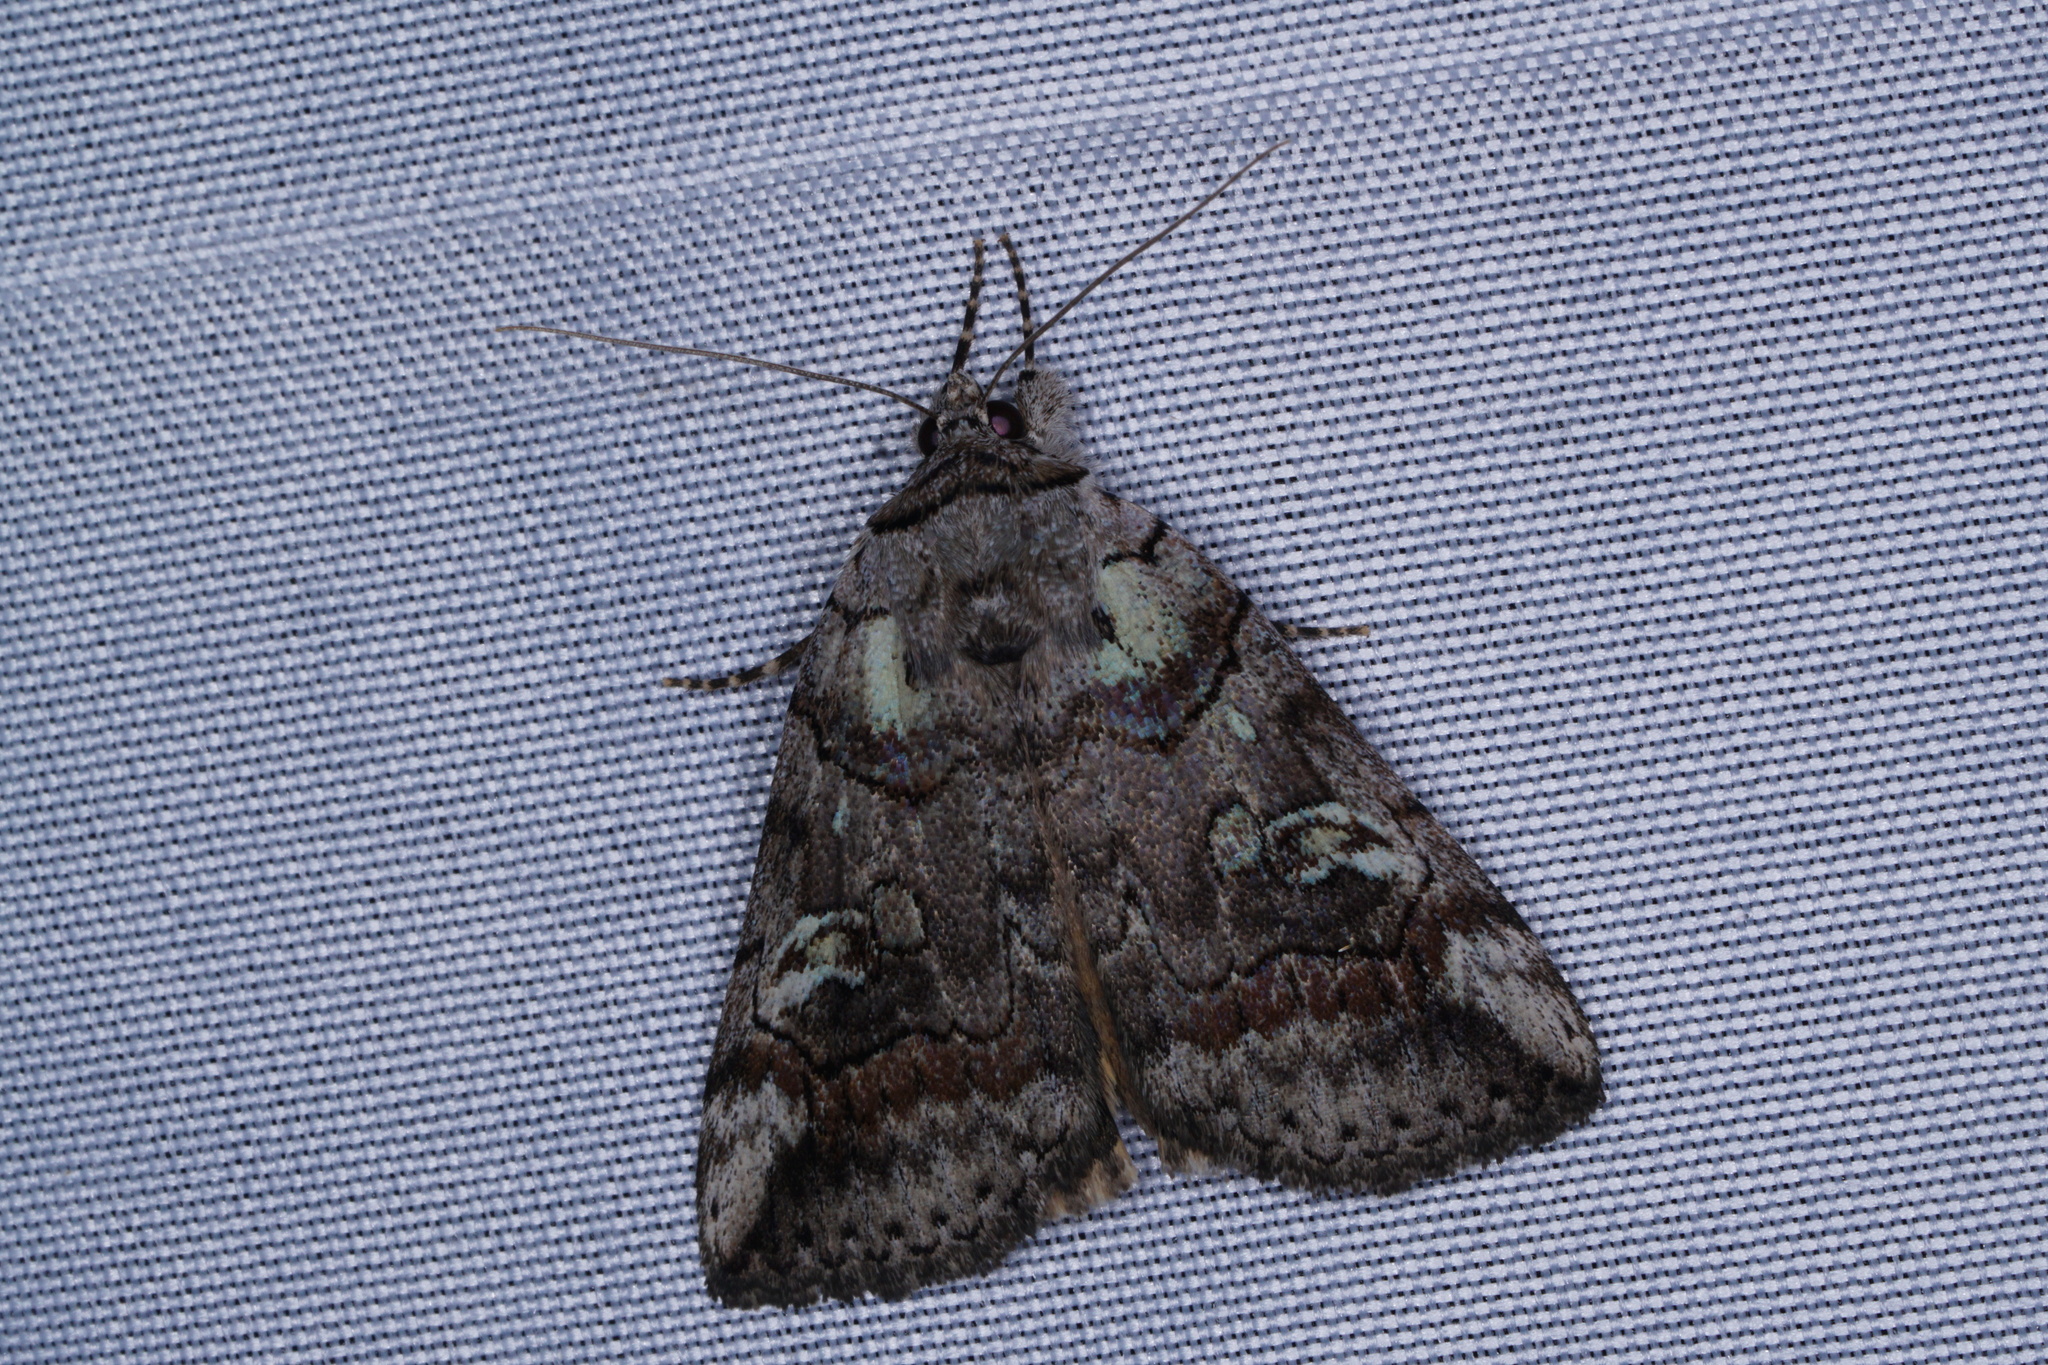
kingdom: Animalia
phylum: Arthropoda
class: Insecta
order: Lepidoptera
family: Erebidae
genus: Catocala
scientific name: Catocala similis
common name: Similar underwing
